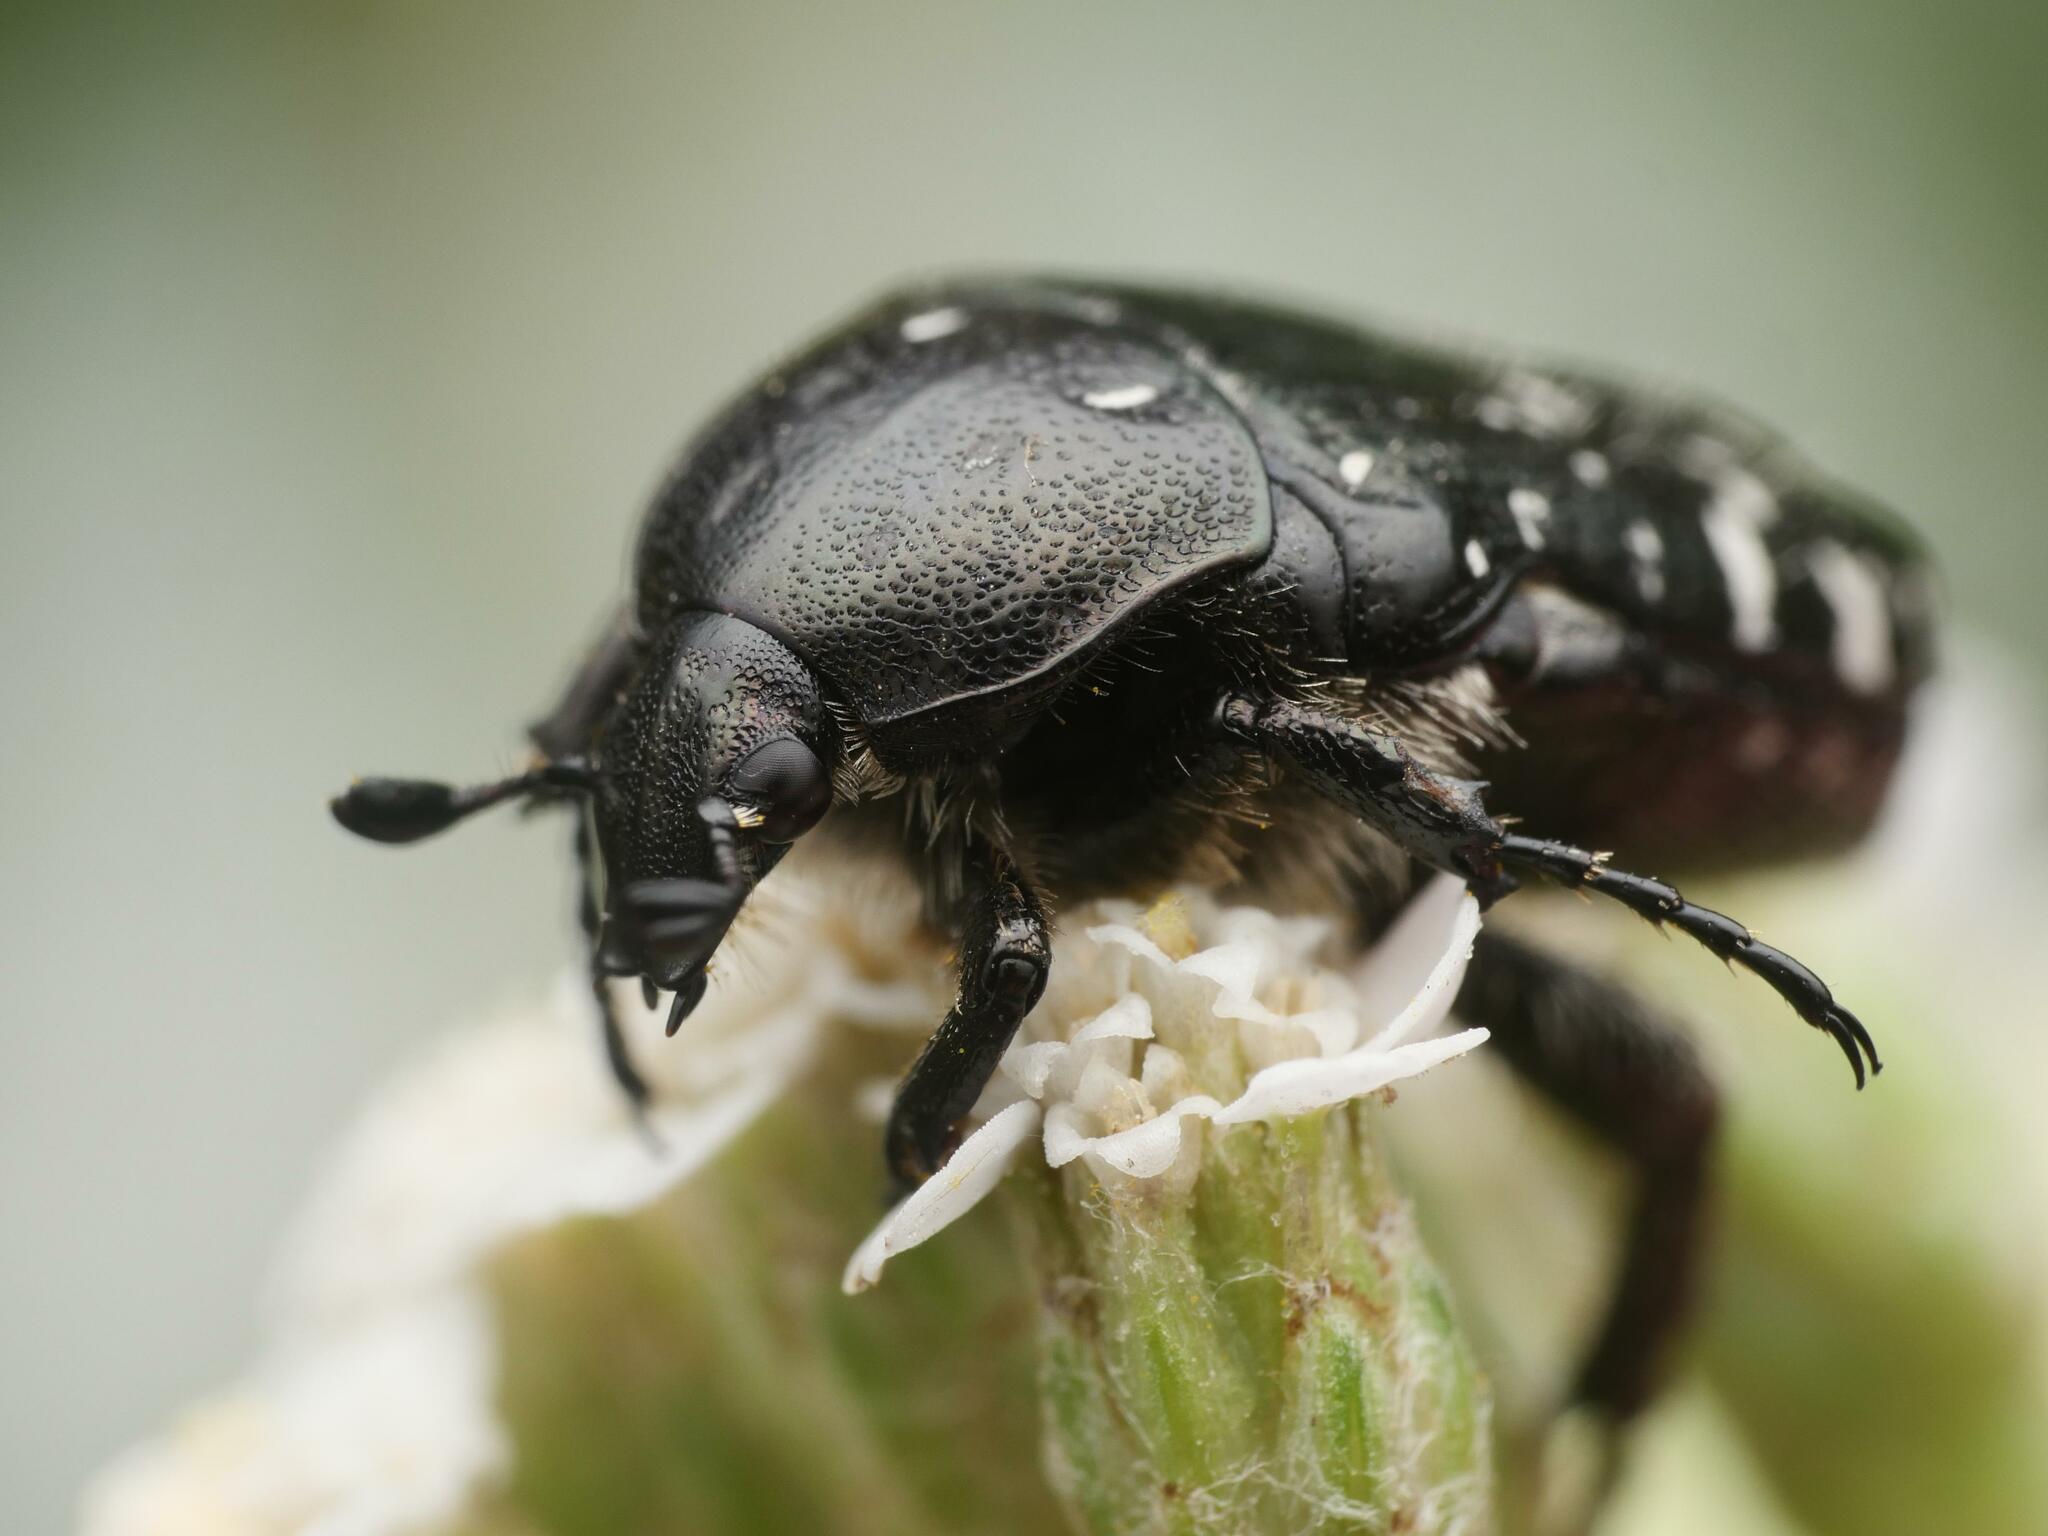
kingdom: Animalia
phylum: Arthropoda
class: Insecta
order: Coleoptera
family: Scarabaeidae
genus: Oxythyrea
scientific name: Oxythyrea funesta
